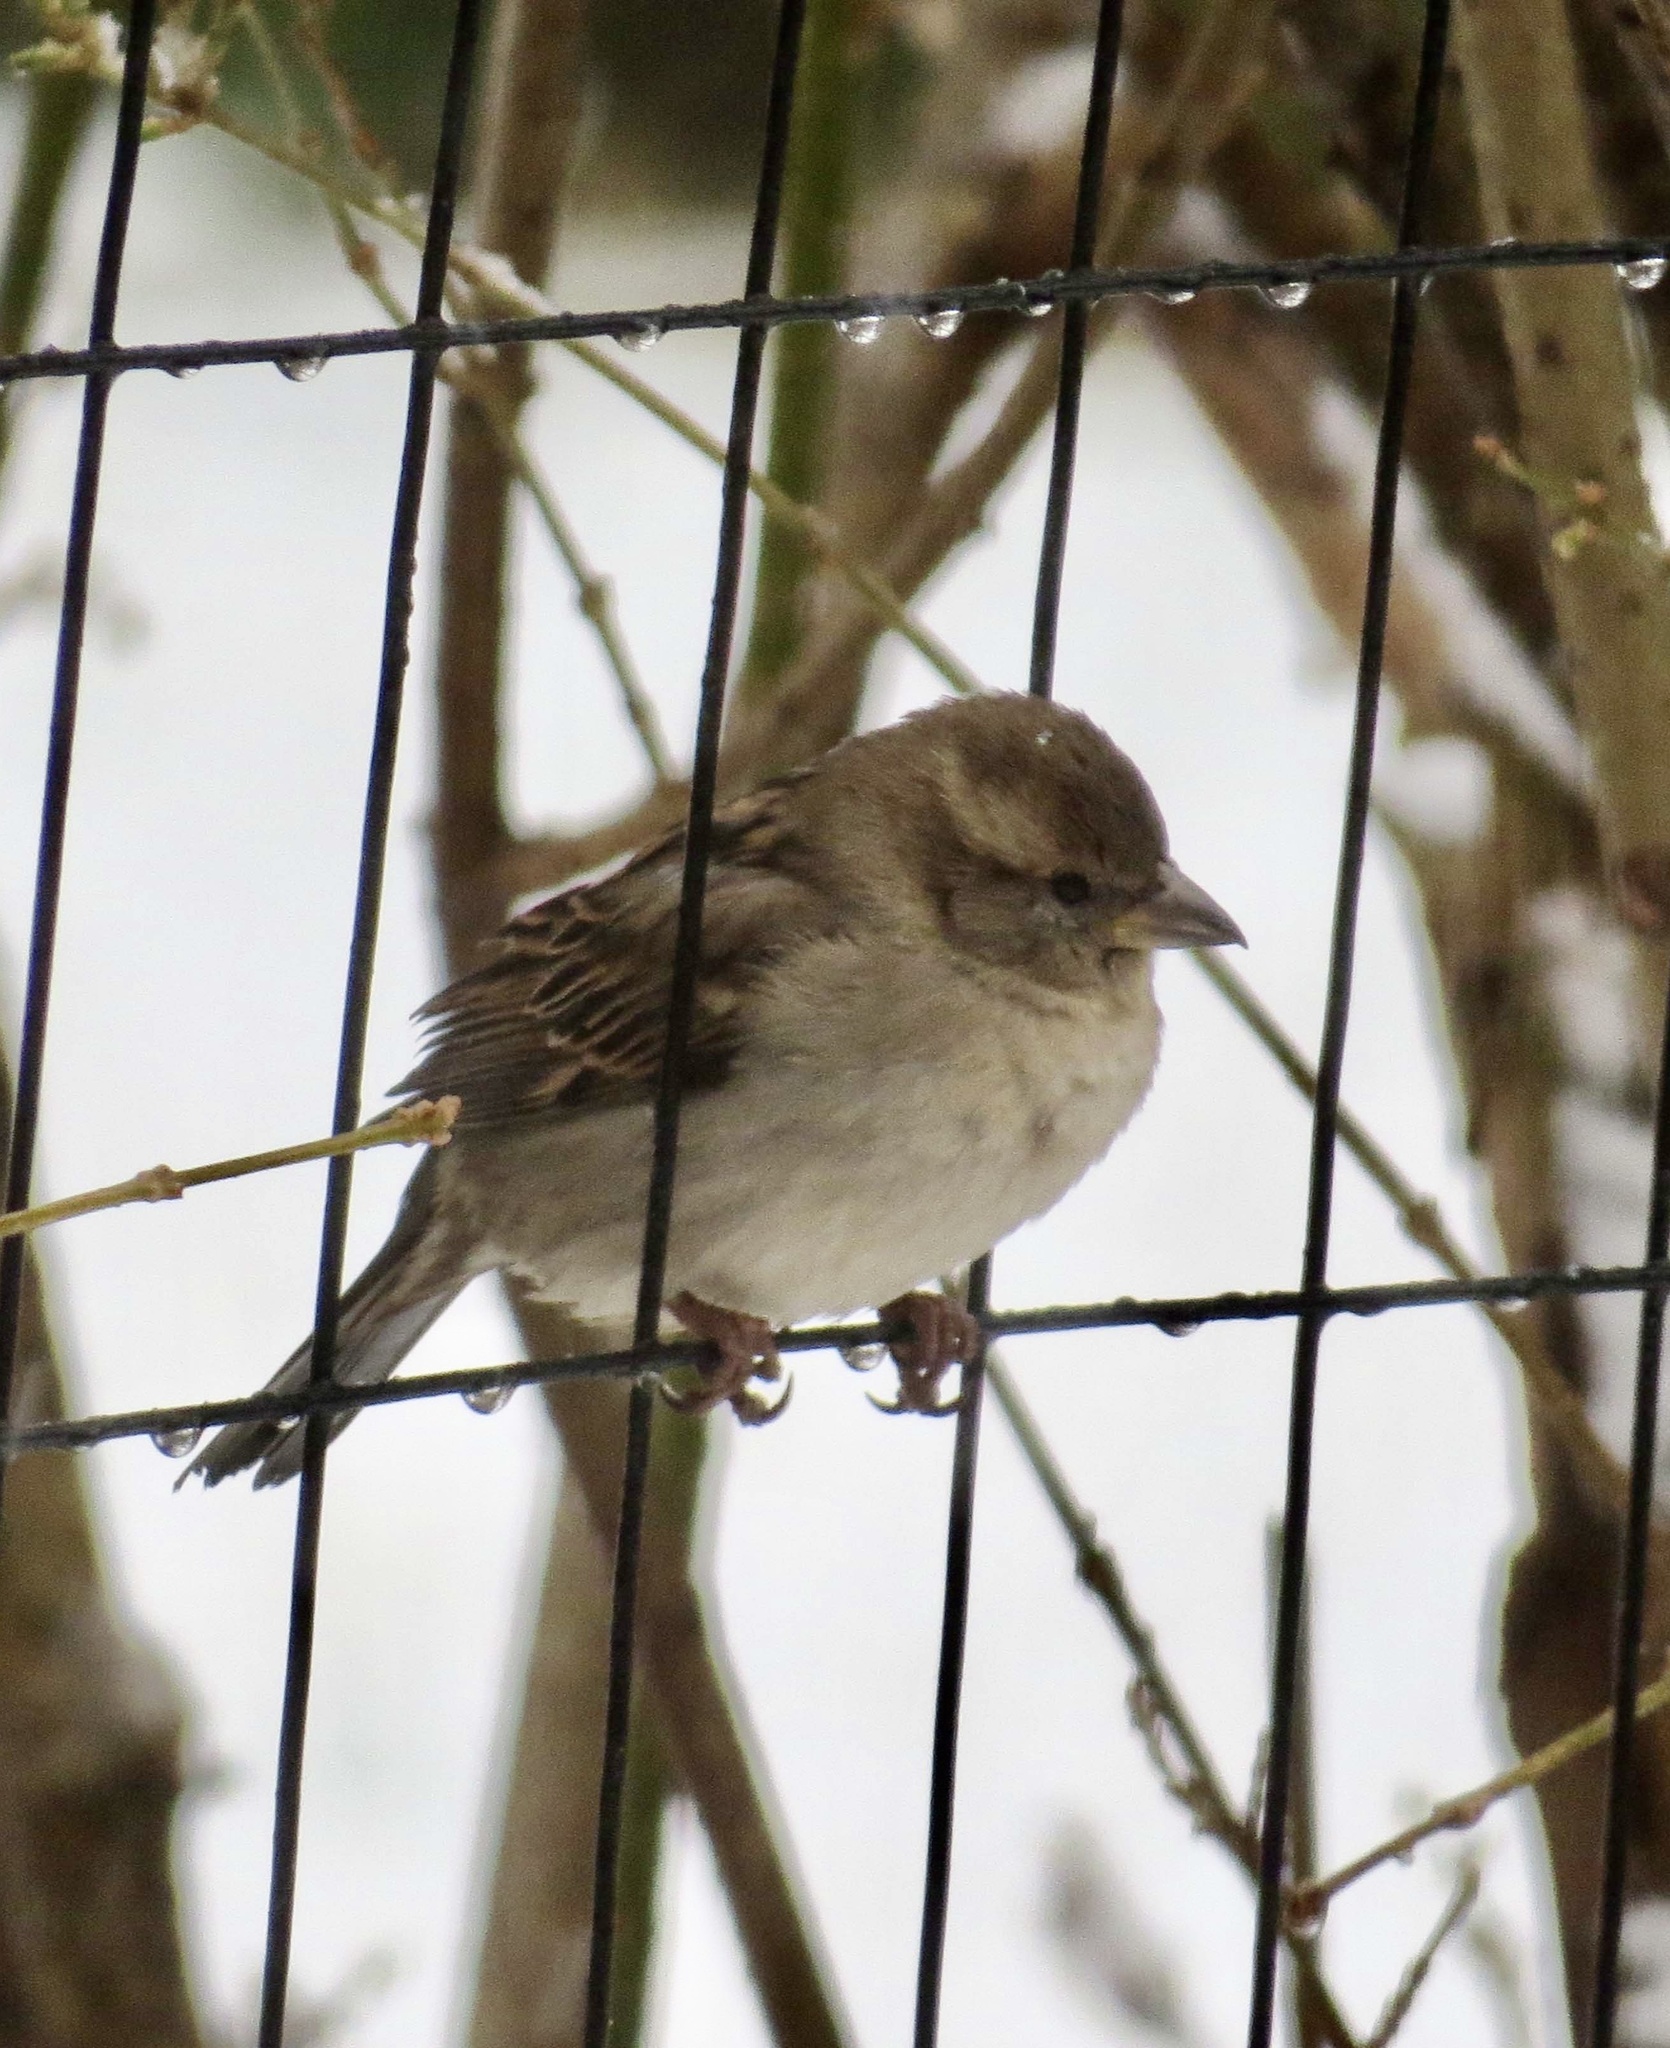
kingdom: Animalia
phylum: Chordata
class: Aves
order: Passeriformes
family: Passeridae
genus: Passer
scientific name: Passer domesticus
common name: House sparrow
